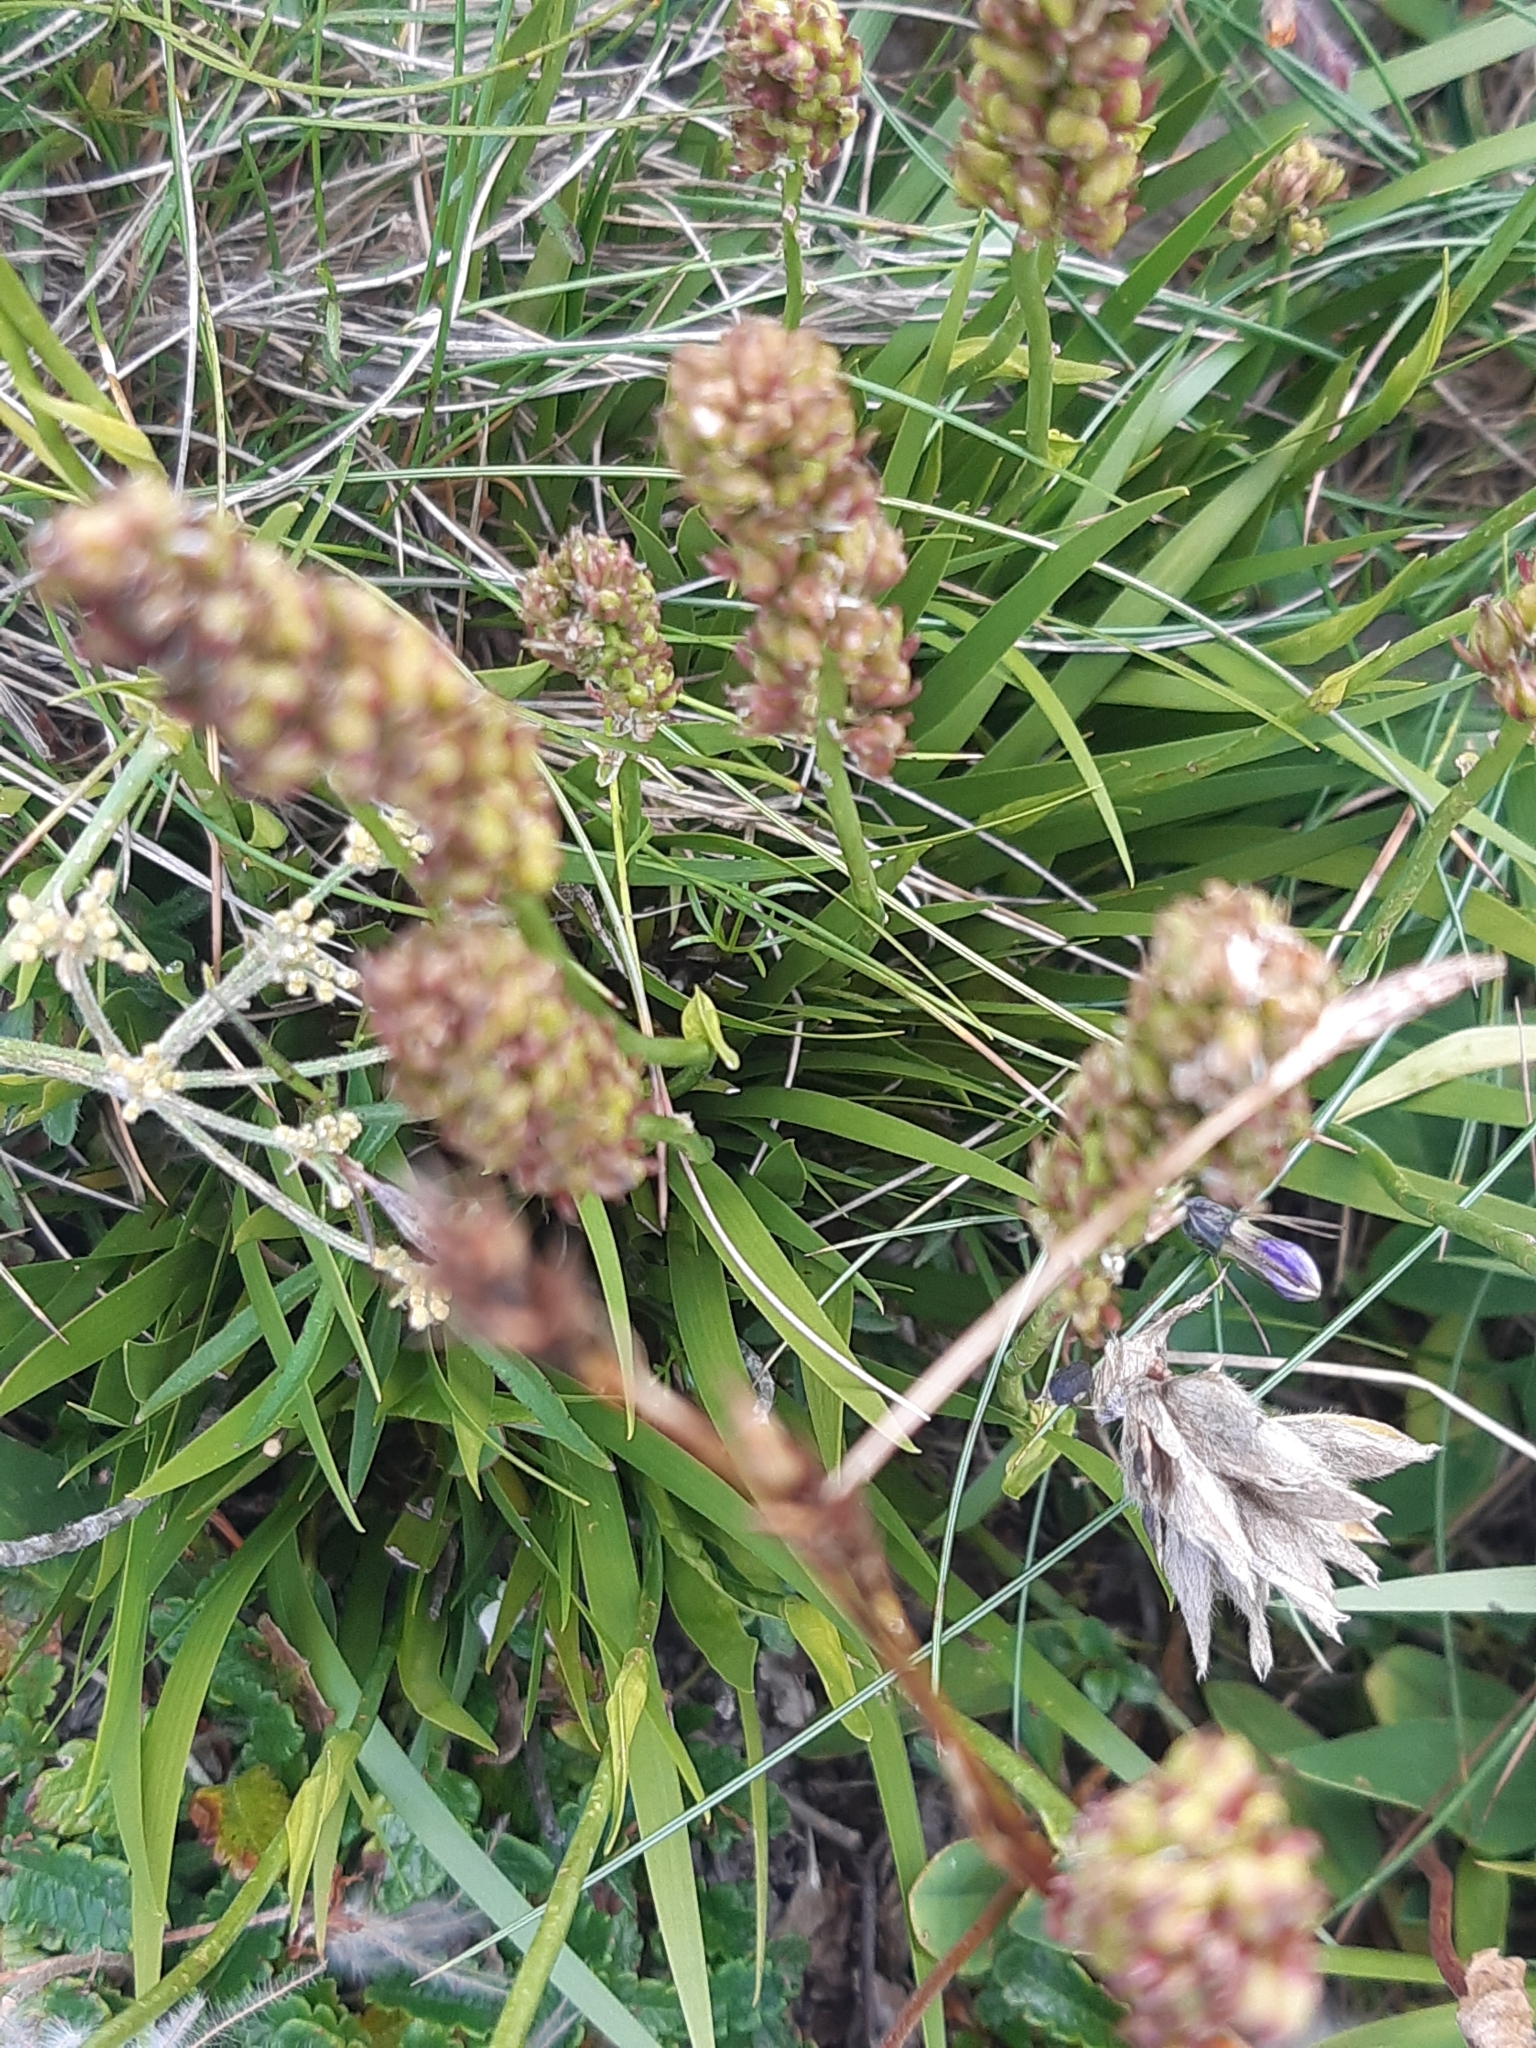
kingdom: Plantae
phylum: Tracheophyta
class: Liliopsida
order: Alismatales
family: Tofieldiaceae
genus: Tofieldia
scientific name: Tofieldia calyculata
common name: German-asphodel
